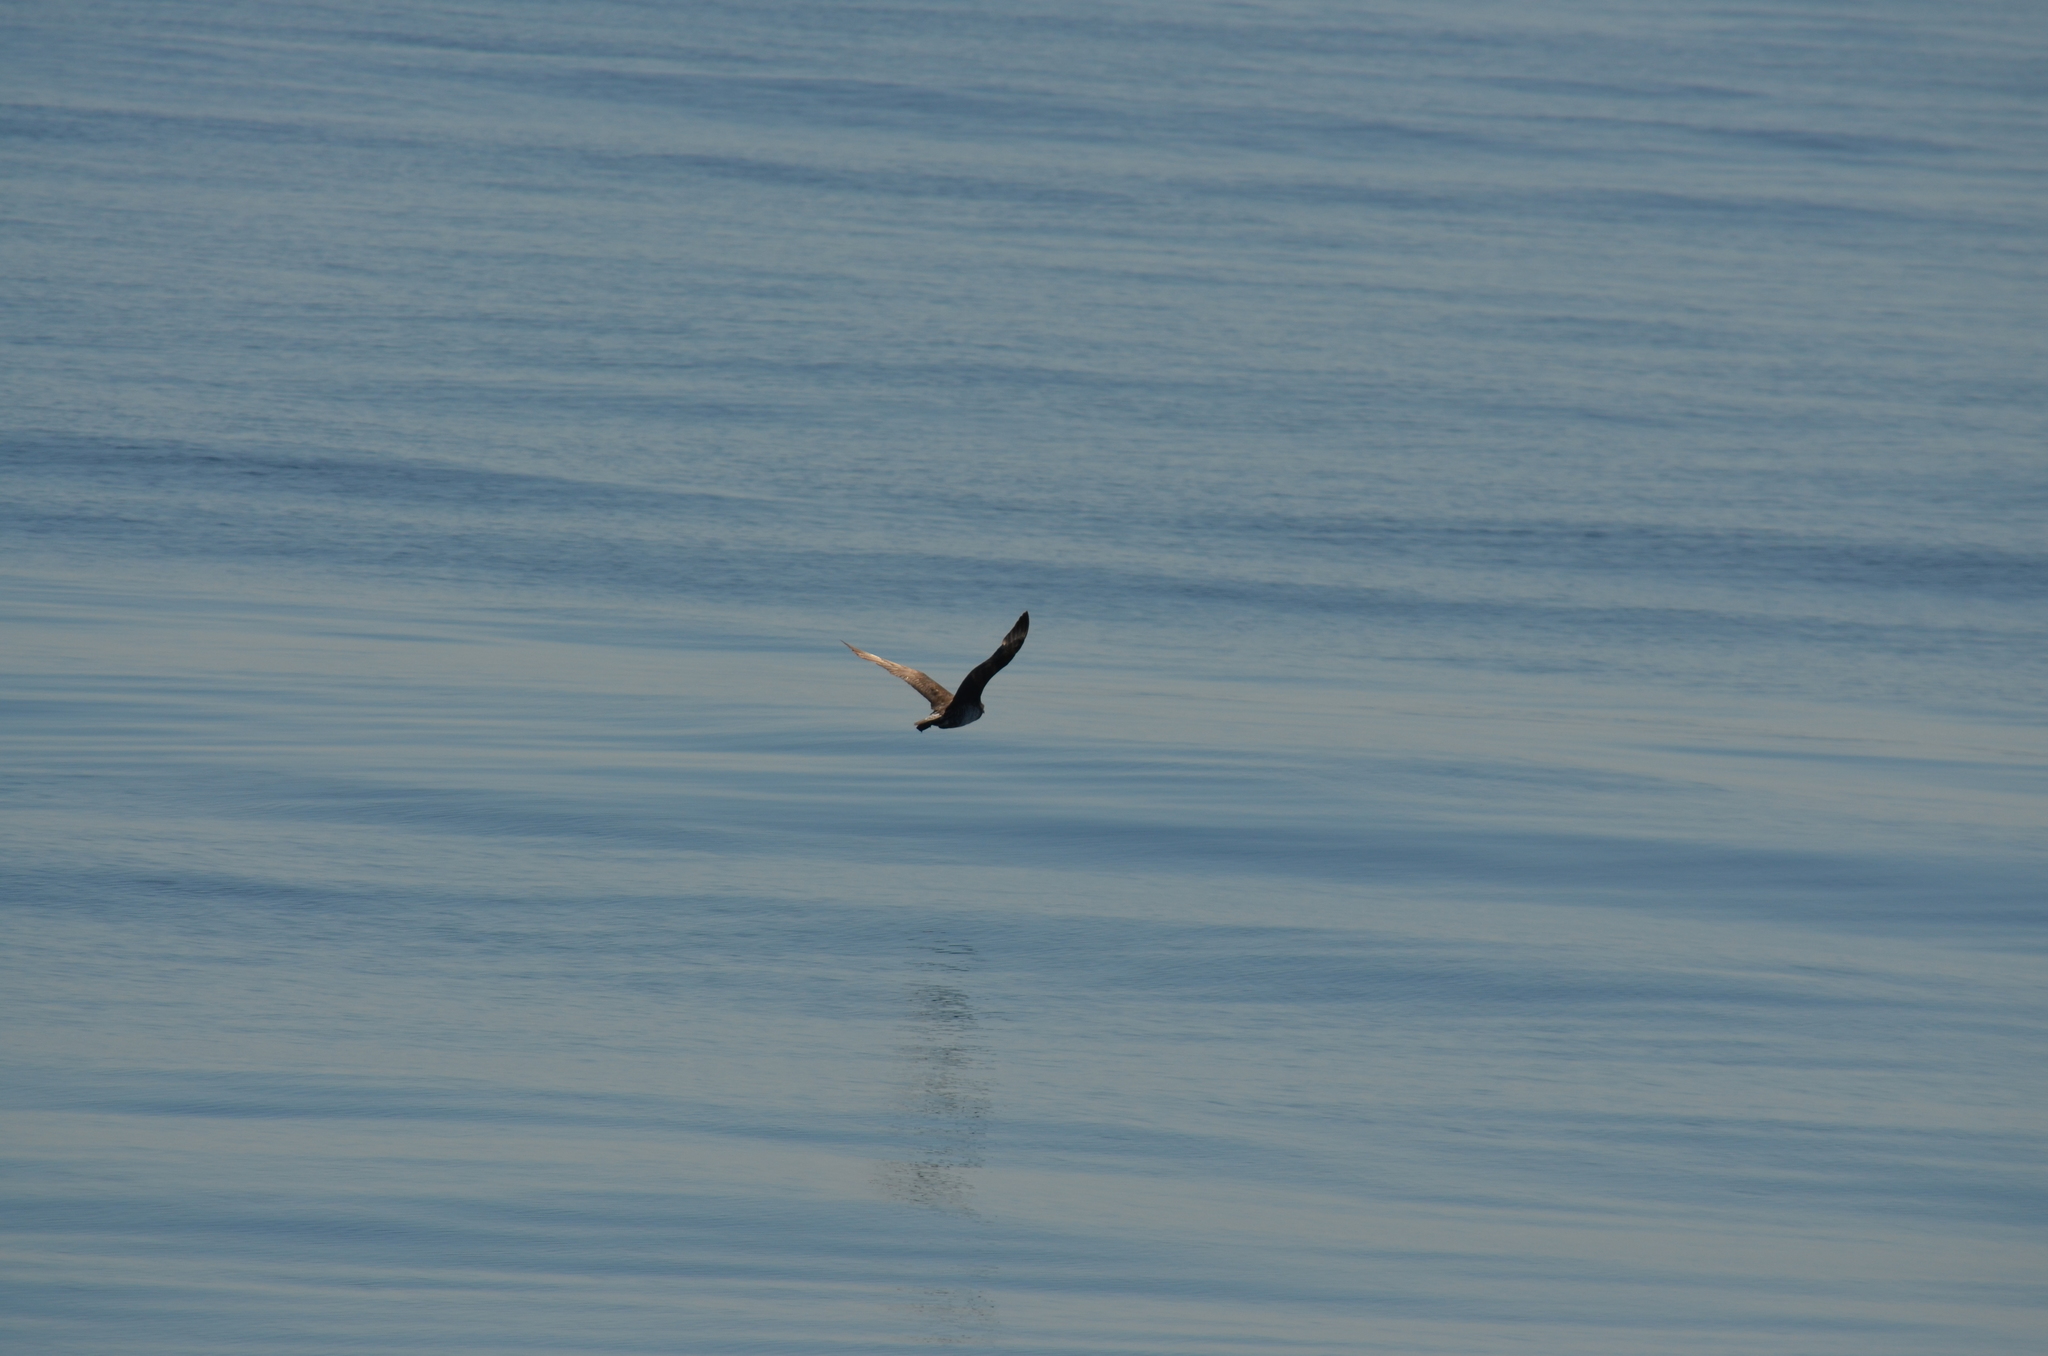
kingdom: Animalia
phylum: Chordata
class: Aves
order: Charadriiformes
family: Stercorariidae
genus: Stercorarius
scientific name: Stercorarius pomarinus
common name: Pomarine jaeger
